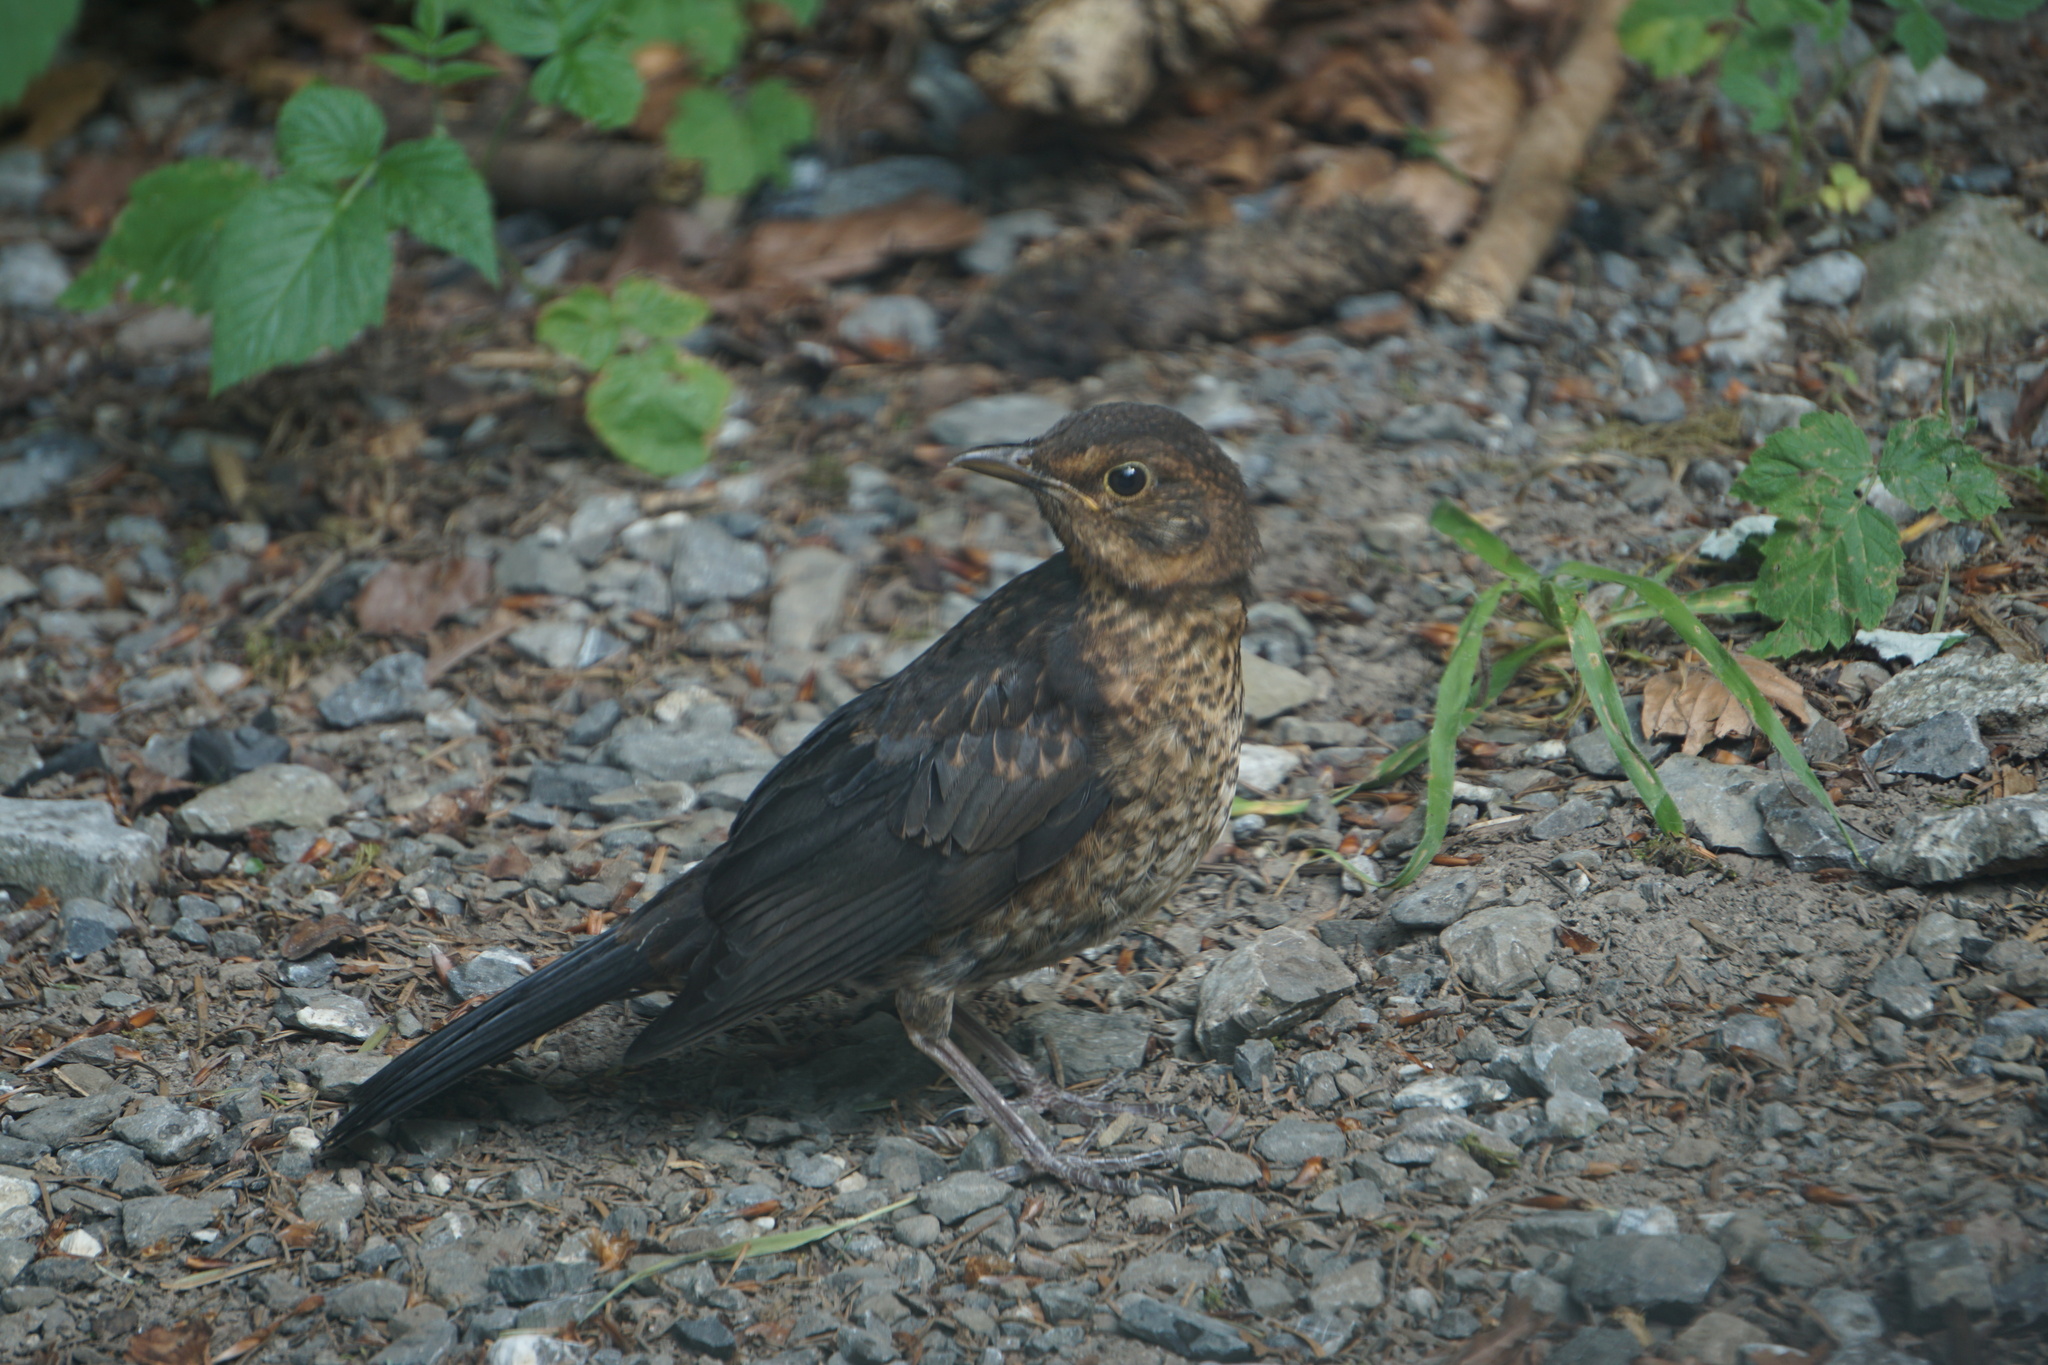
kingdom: Animalia
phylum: Chordata
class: Aves
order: Passeriformes
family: Turdidae
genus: Turdus
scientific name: Turdus merula
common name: Common blackbird
